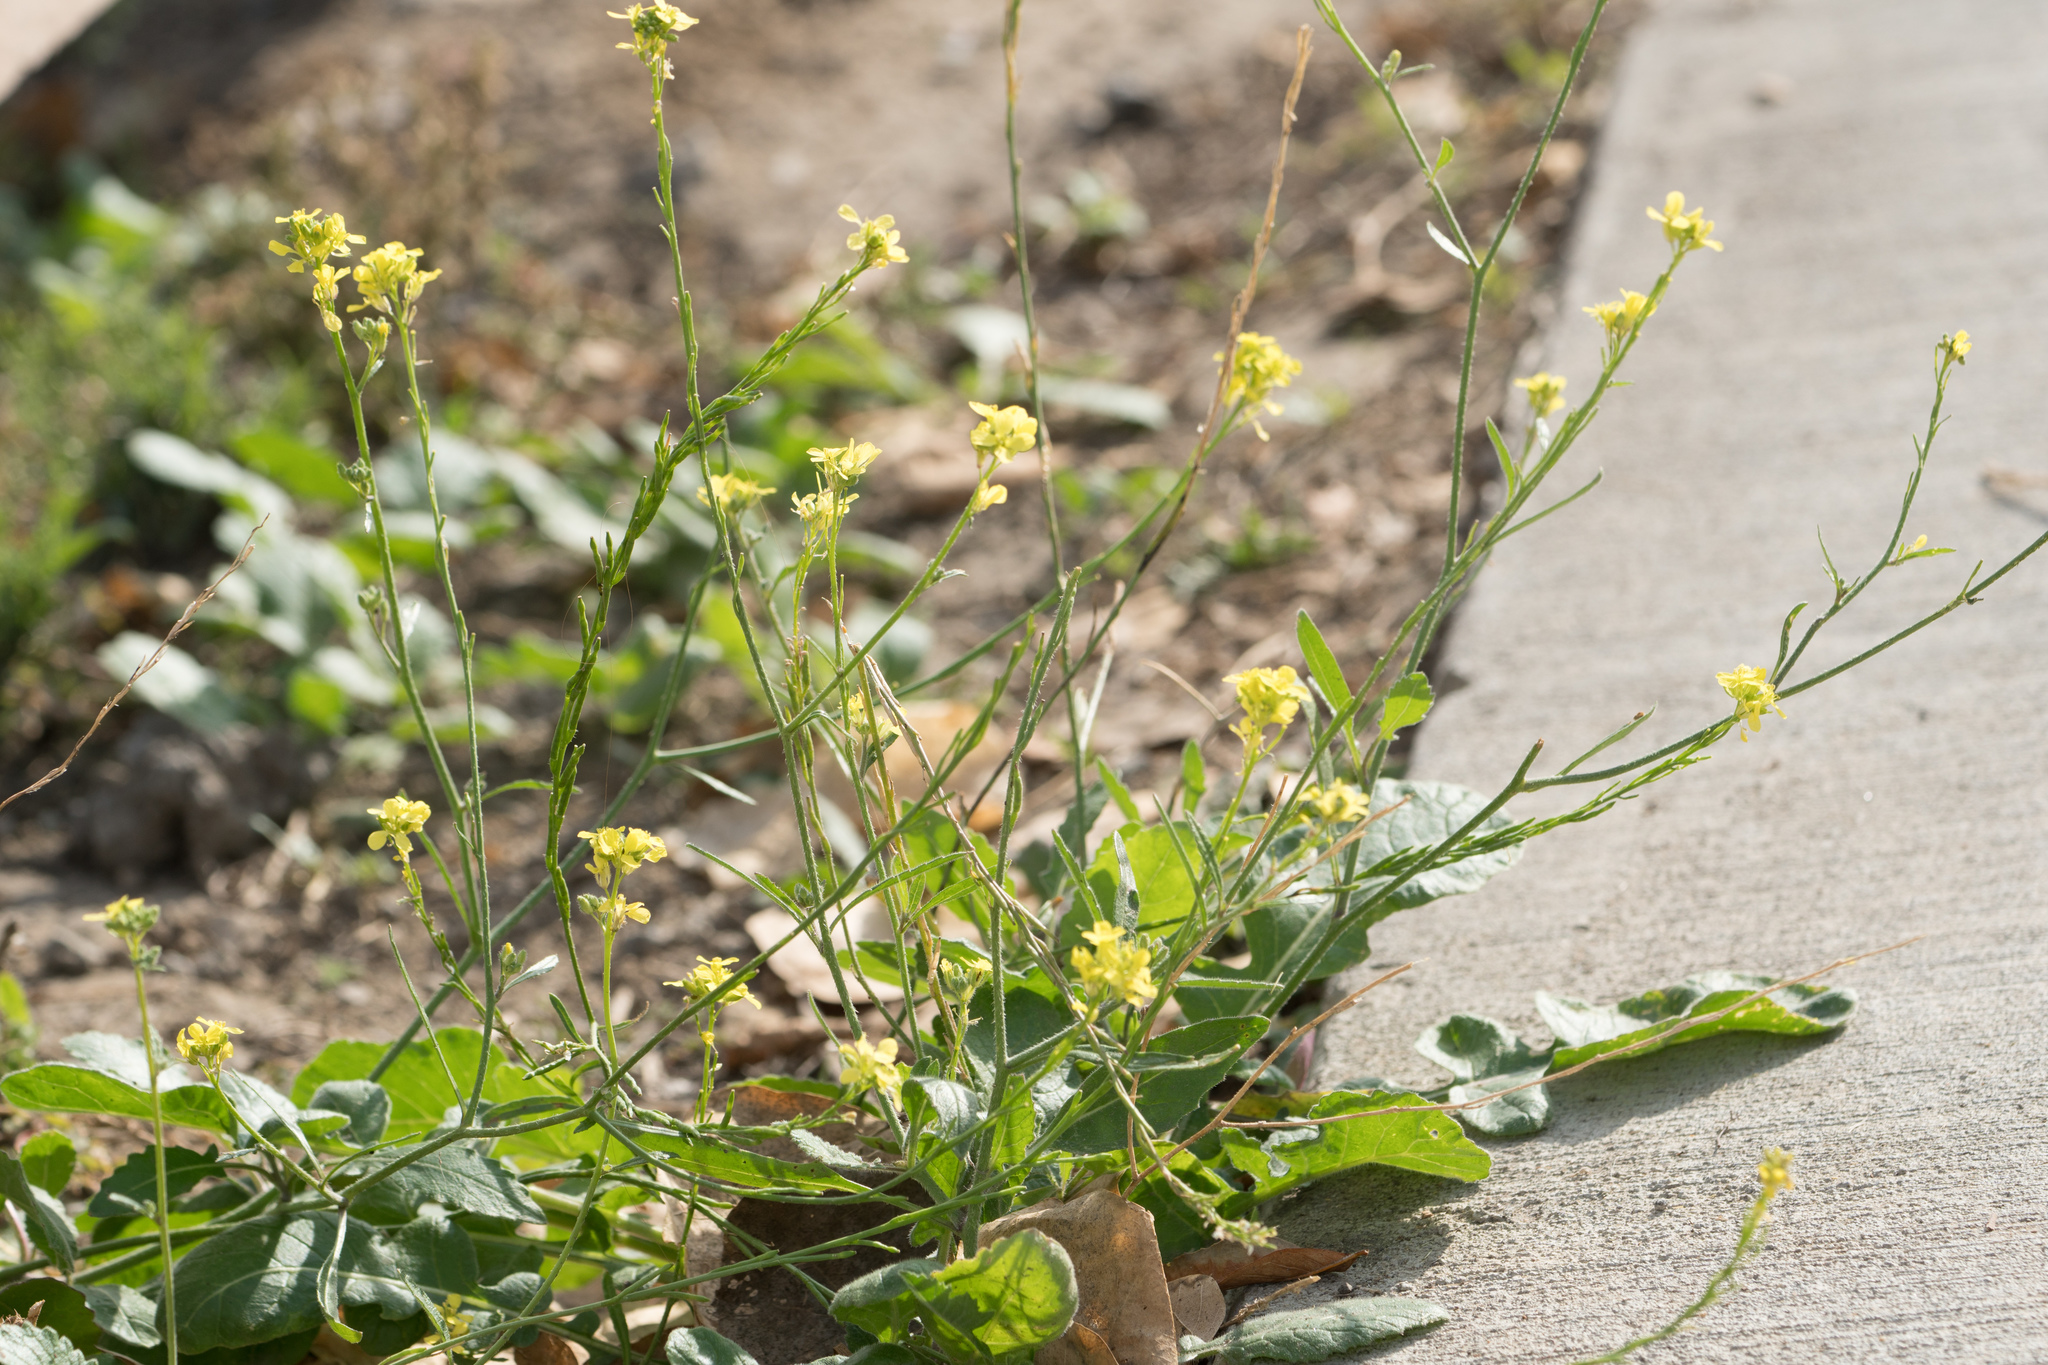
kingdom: Plantae
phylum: Tracheophyta
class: Magnoliopsida
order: Brassicales
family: Brassicaceae
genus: Hirschfeldia
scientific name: Hirschfeldia incana
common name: Hoary mustard
